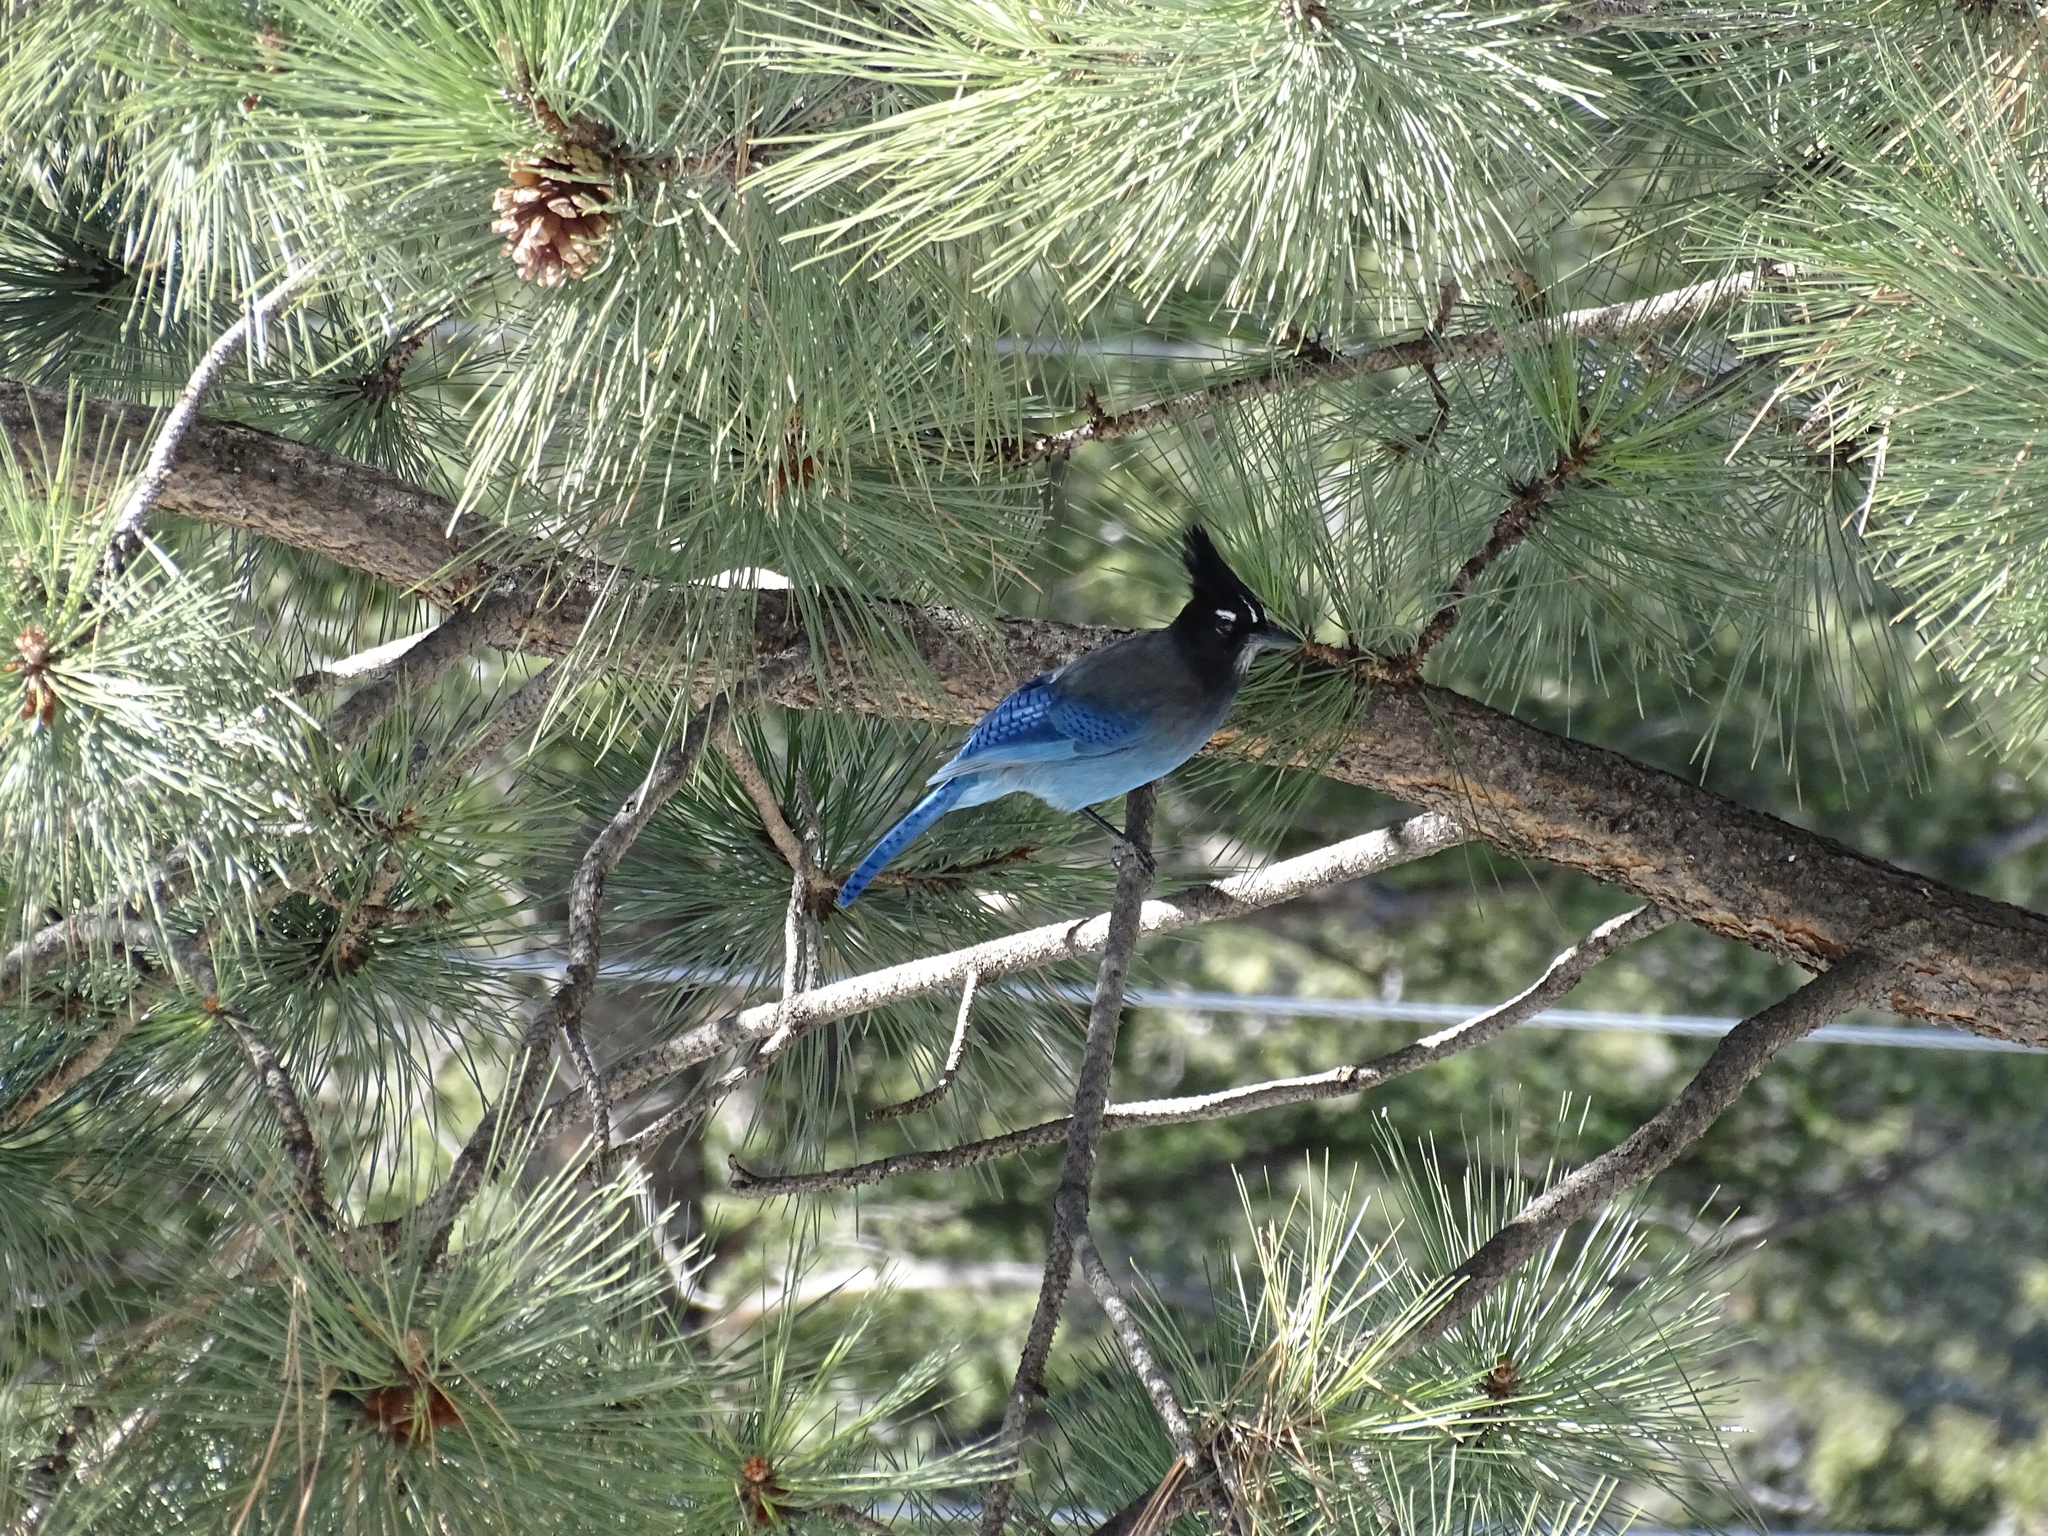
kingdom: Animalia
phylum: Chordata
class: Aves
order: Passeriformes
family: Corvidae
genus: Cyanocitta
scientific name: Cyanocitta stelleri
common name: Steller's jay
